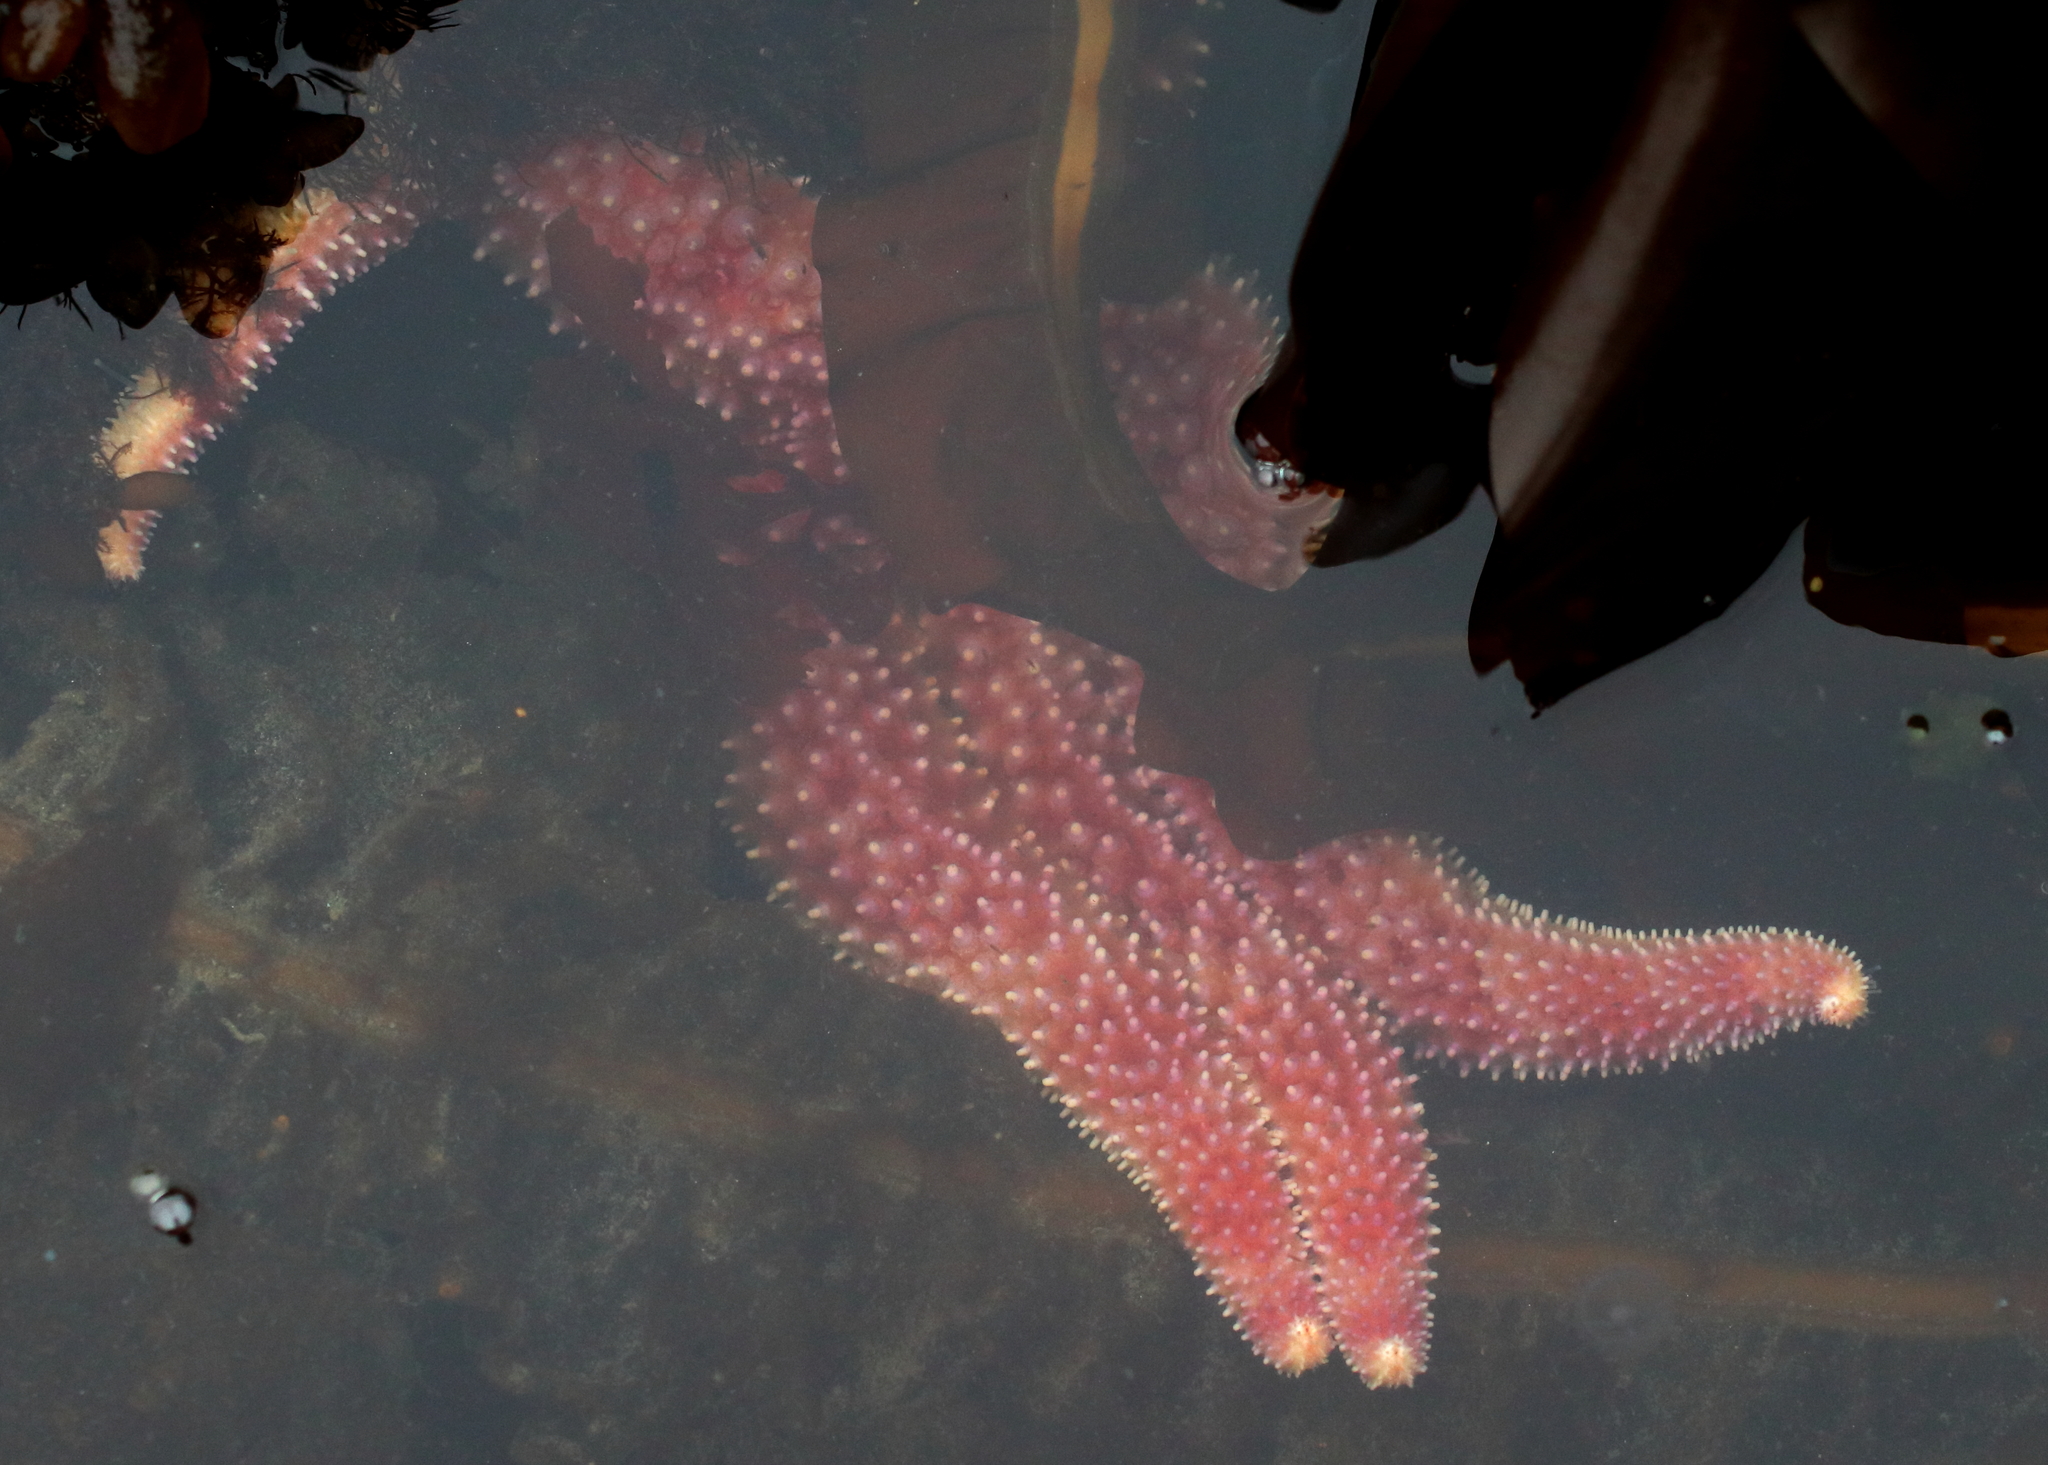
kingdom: Animalia
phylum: Echinodermata
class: Asteroidea
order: Forcipulatida
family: Asteriidae
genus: Orthasterias
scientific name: Orthasterias koehleri
